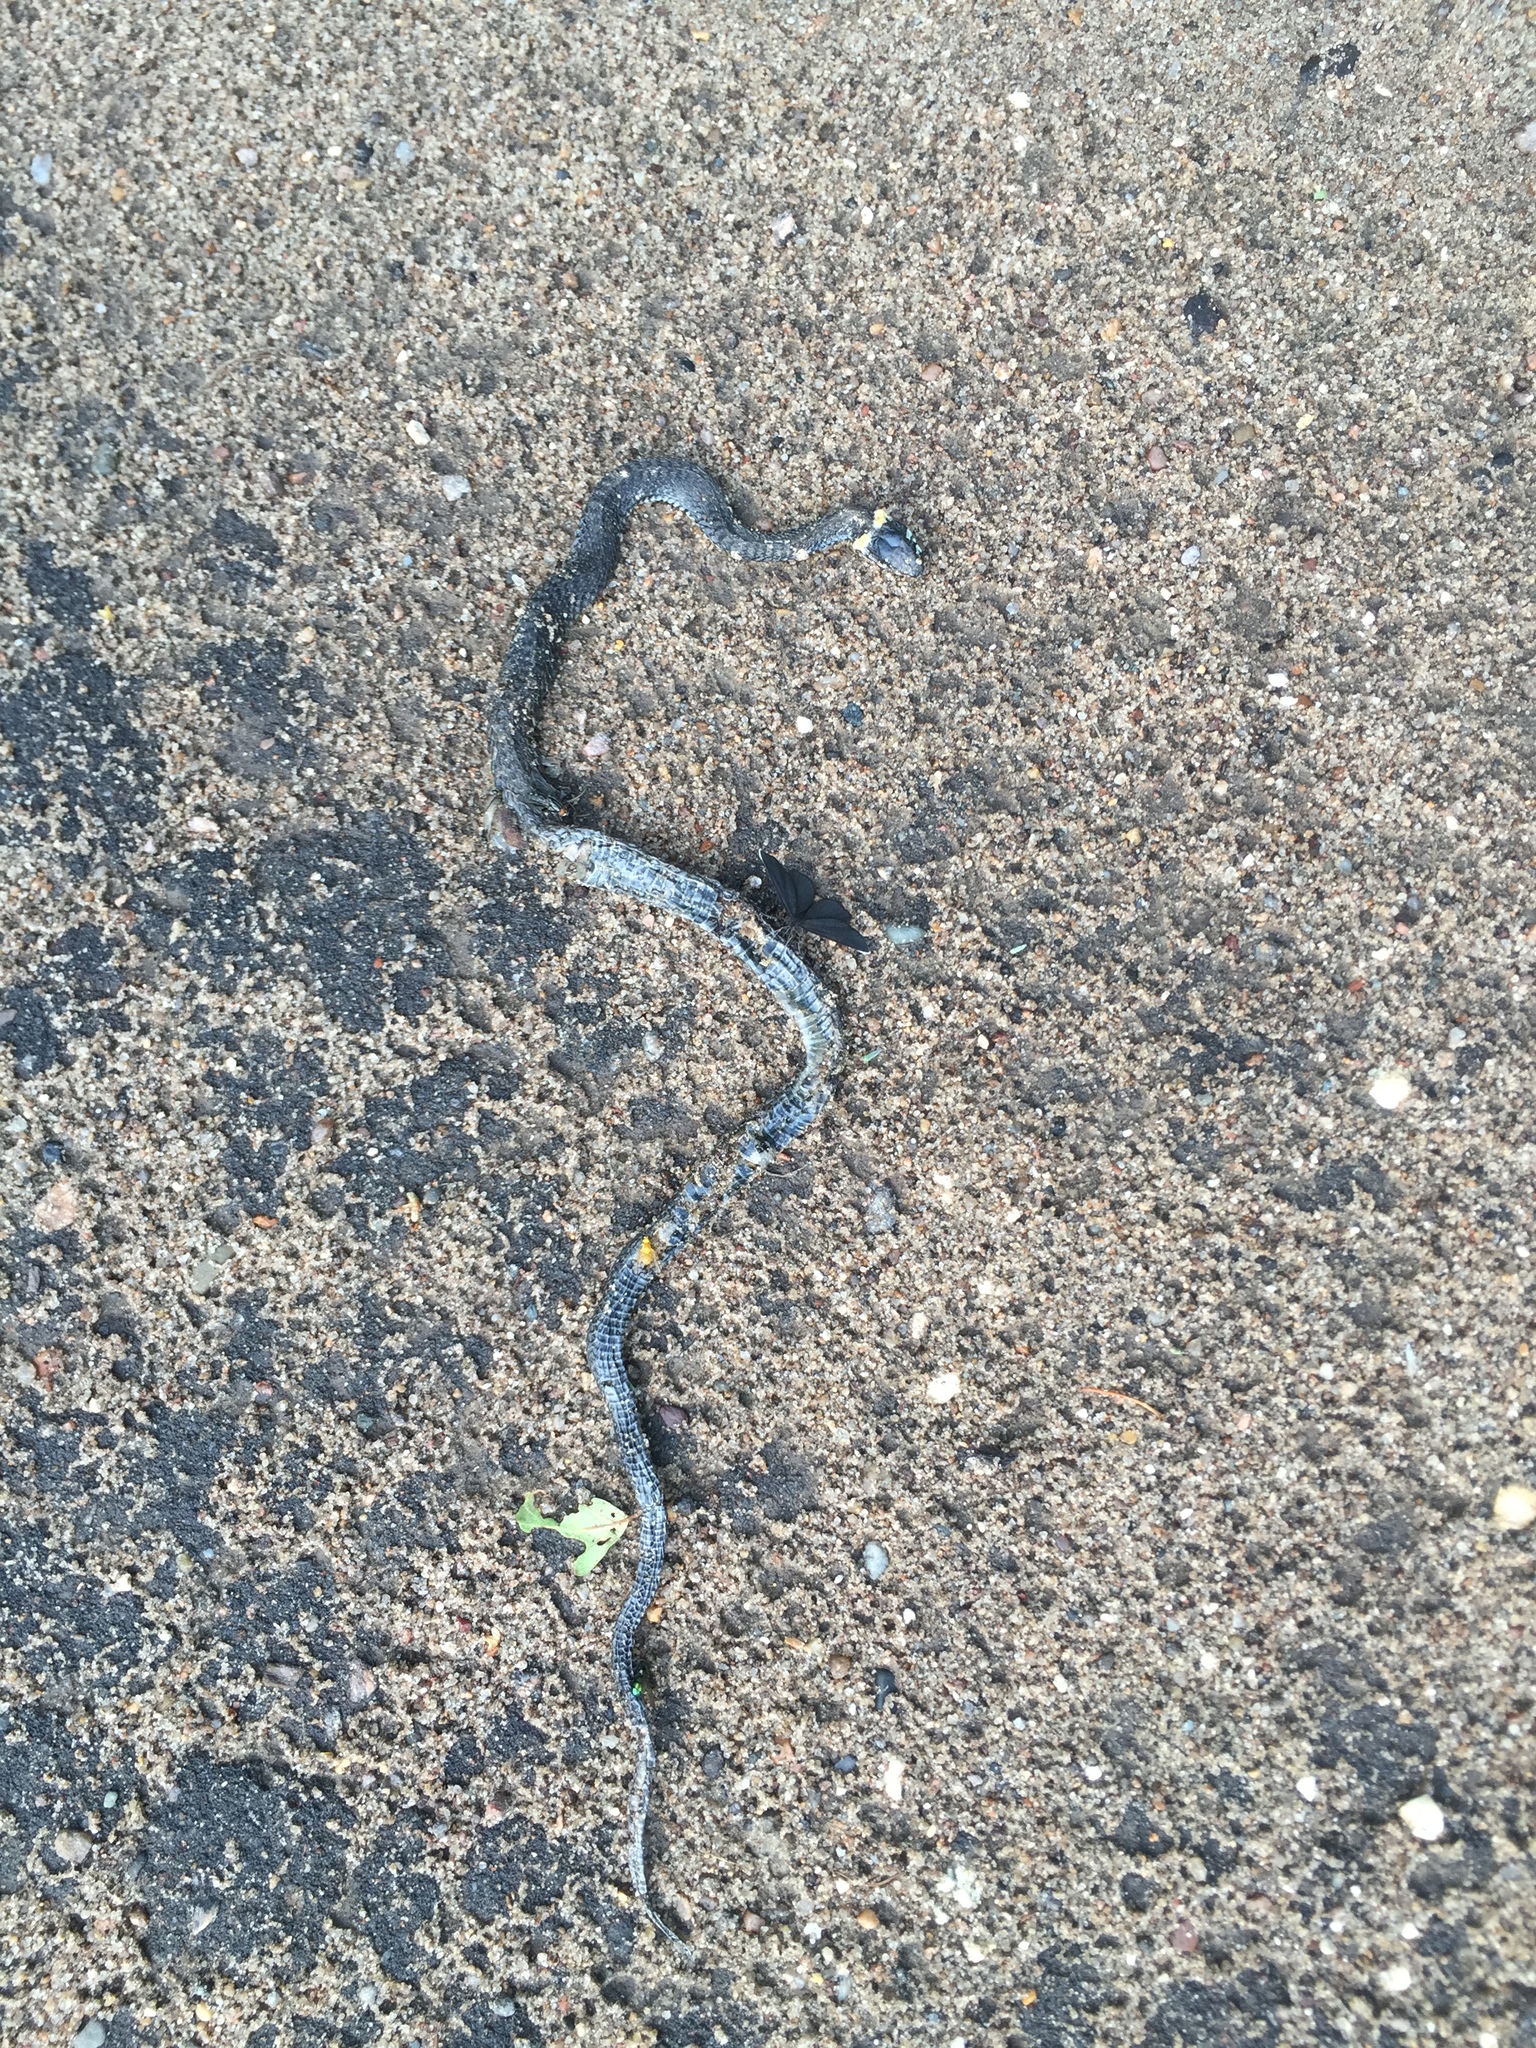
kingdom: Animalia
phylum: Chordata
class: Squamata
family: Colubridae
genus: Natrix
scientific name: Natrix natrix
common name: Grass snake
